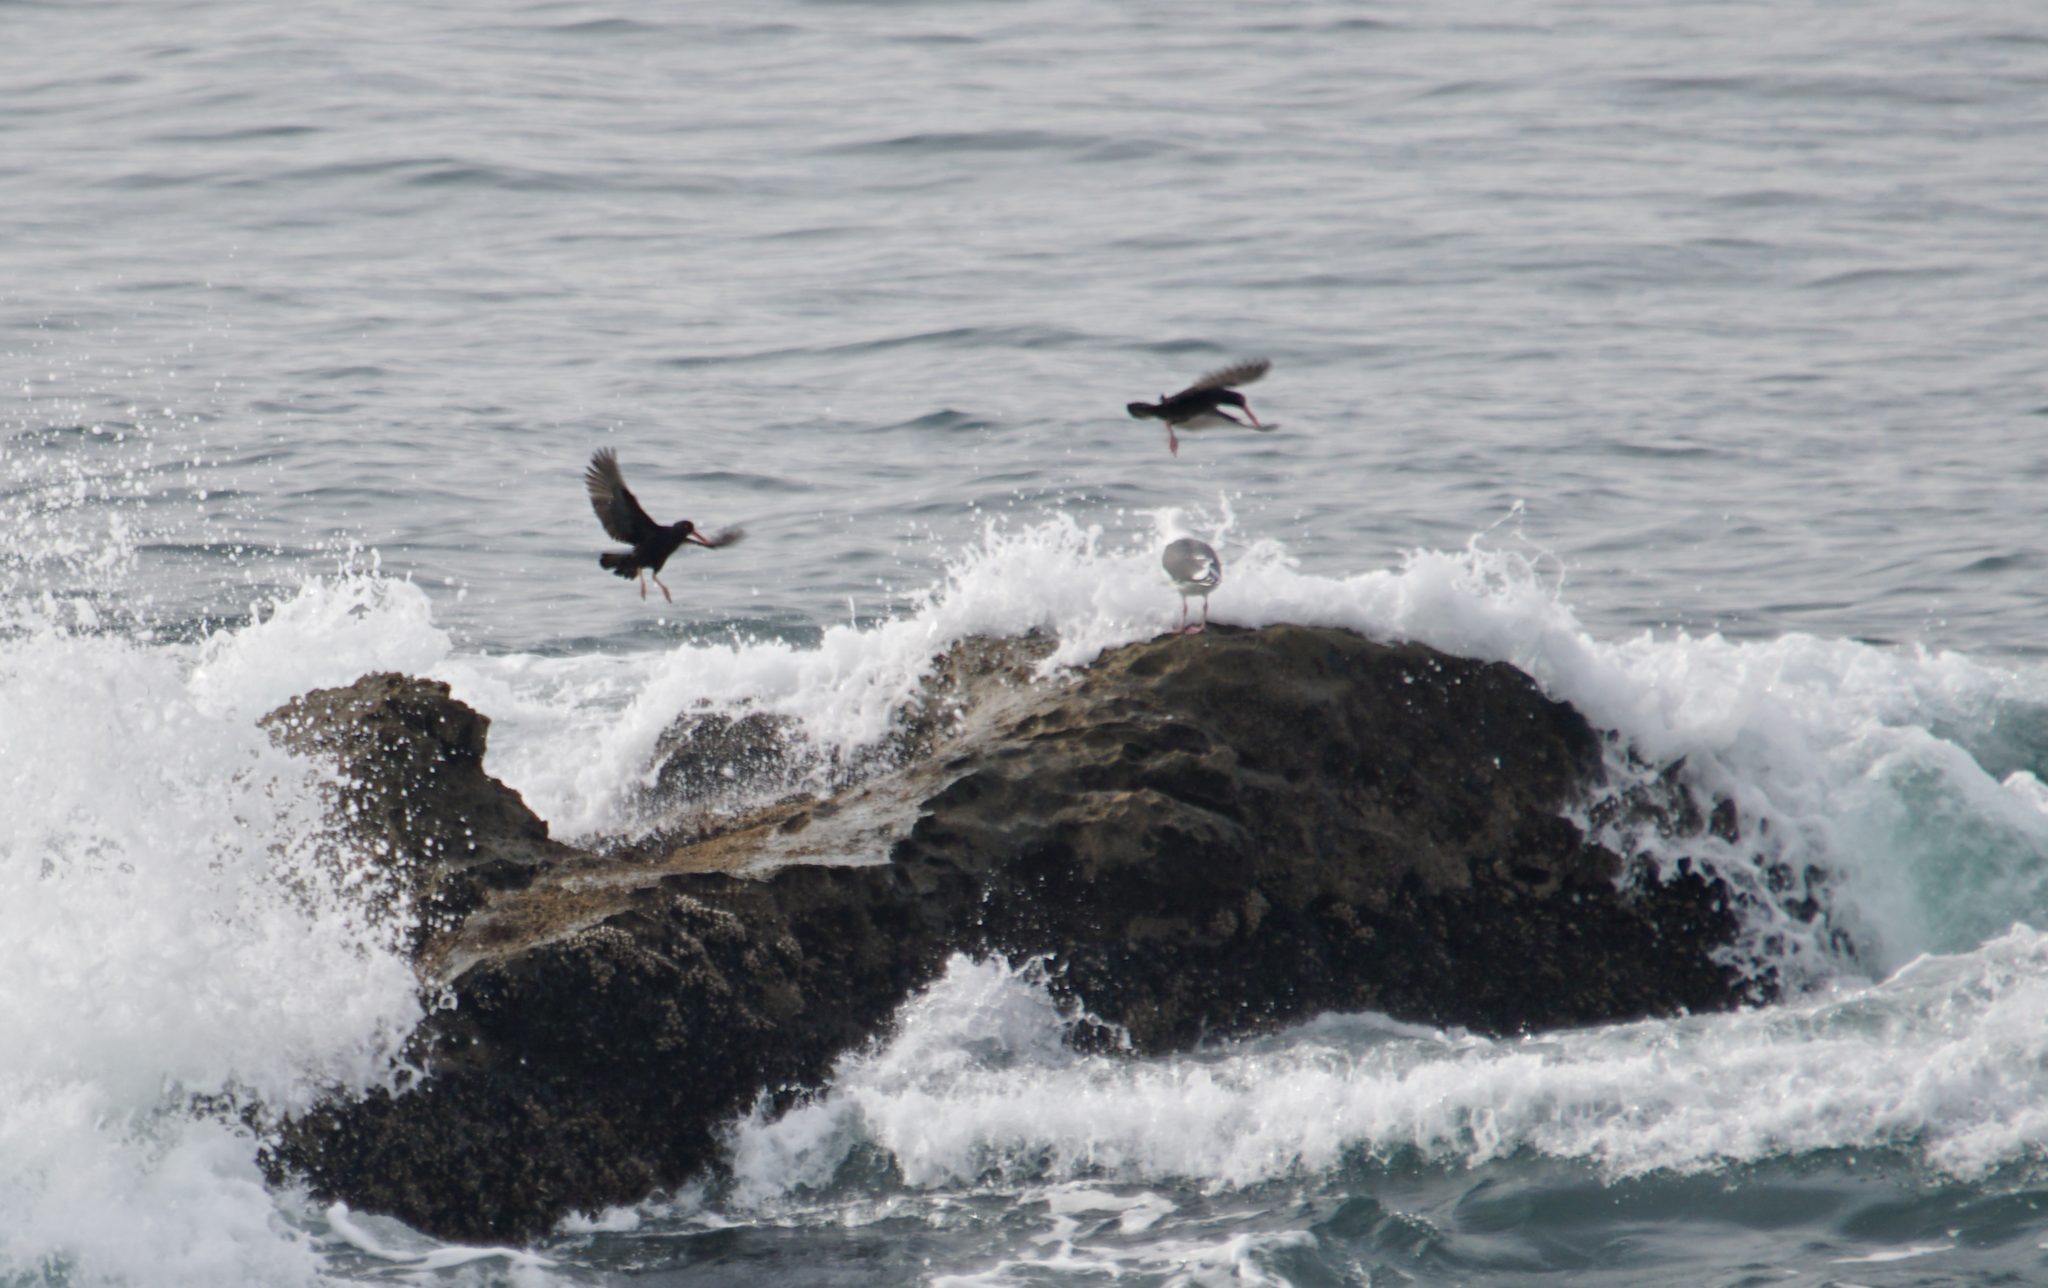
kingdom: Animalia
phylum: Chordata
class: Aves
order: Charadriiformes
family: Haematopodidae
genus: Haematopus
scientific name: Haematopus bachmani
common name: Black oystercatcher
